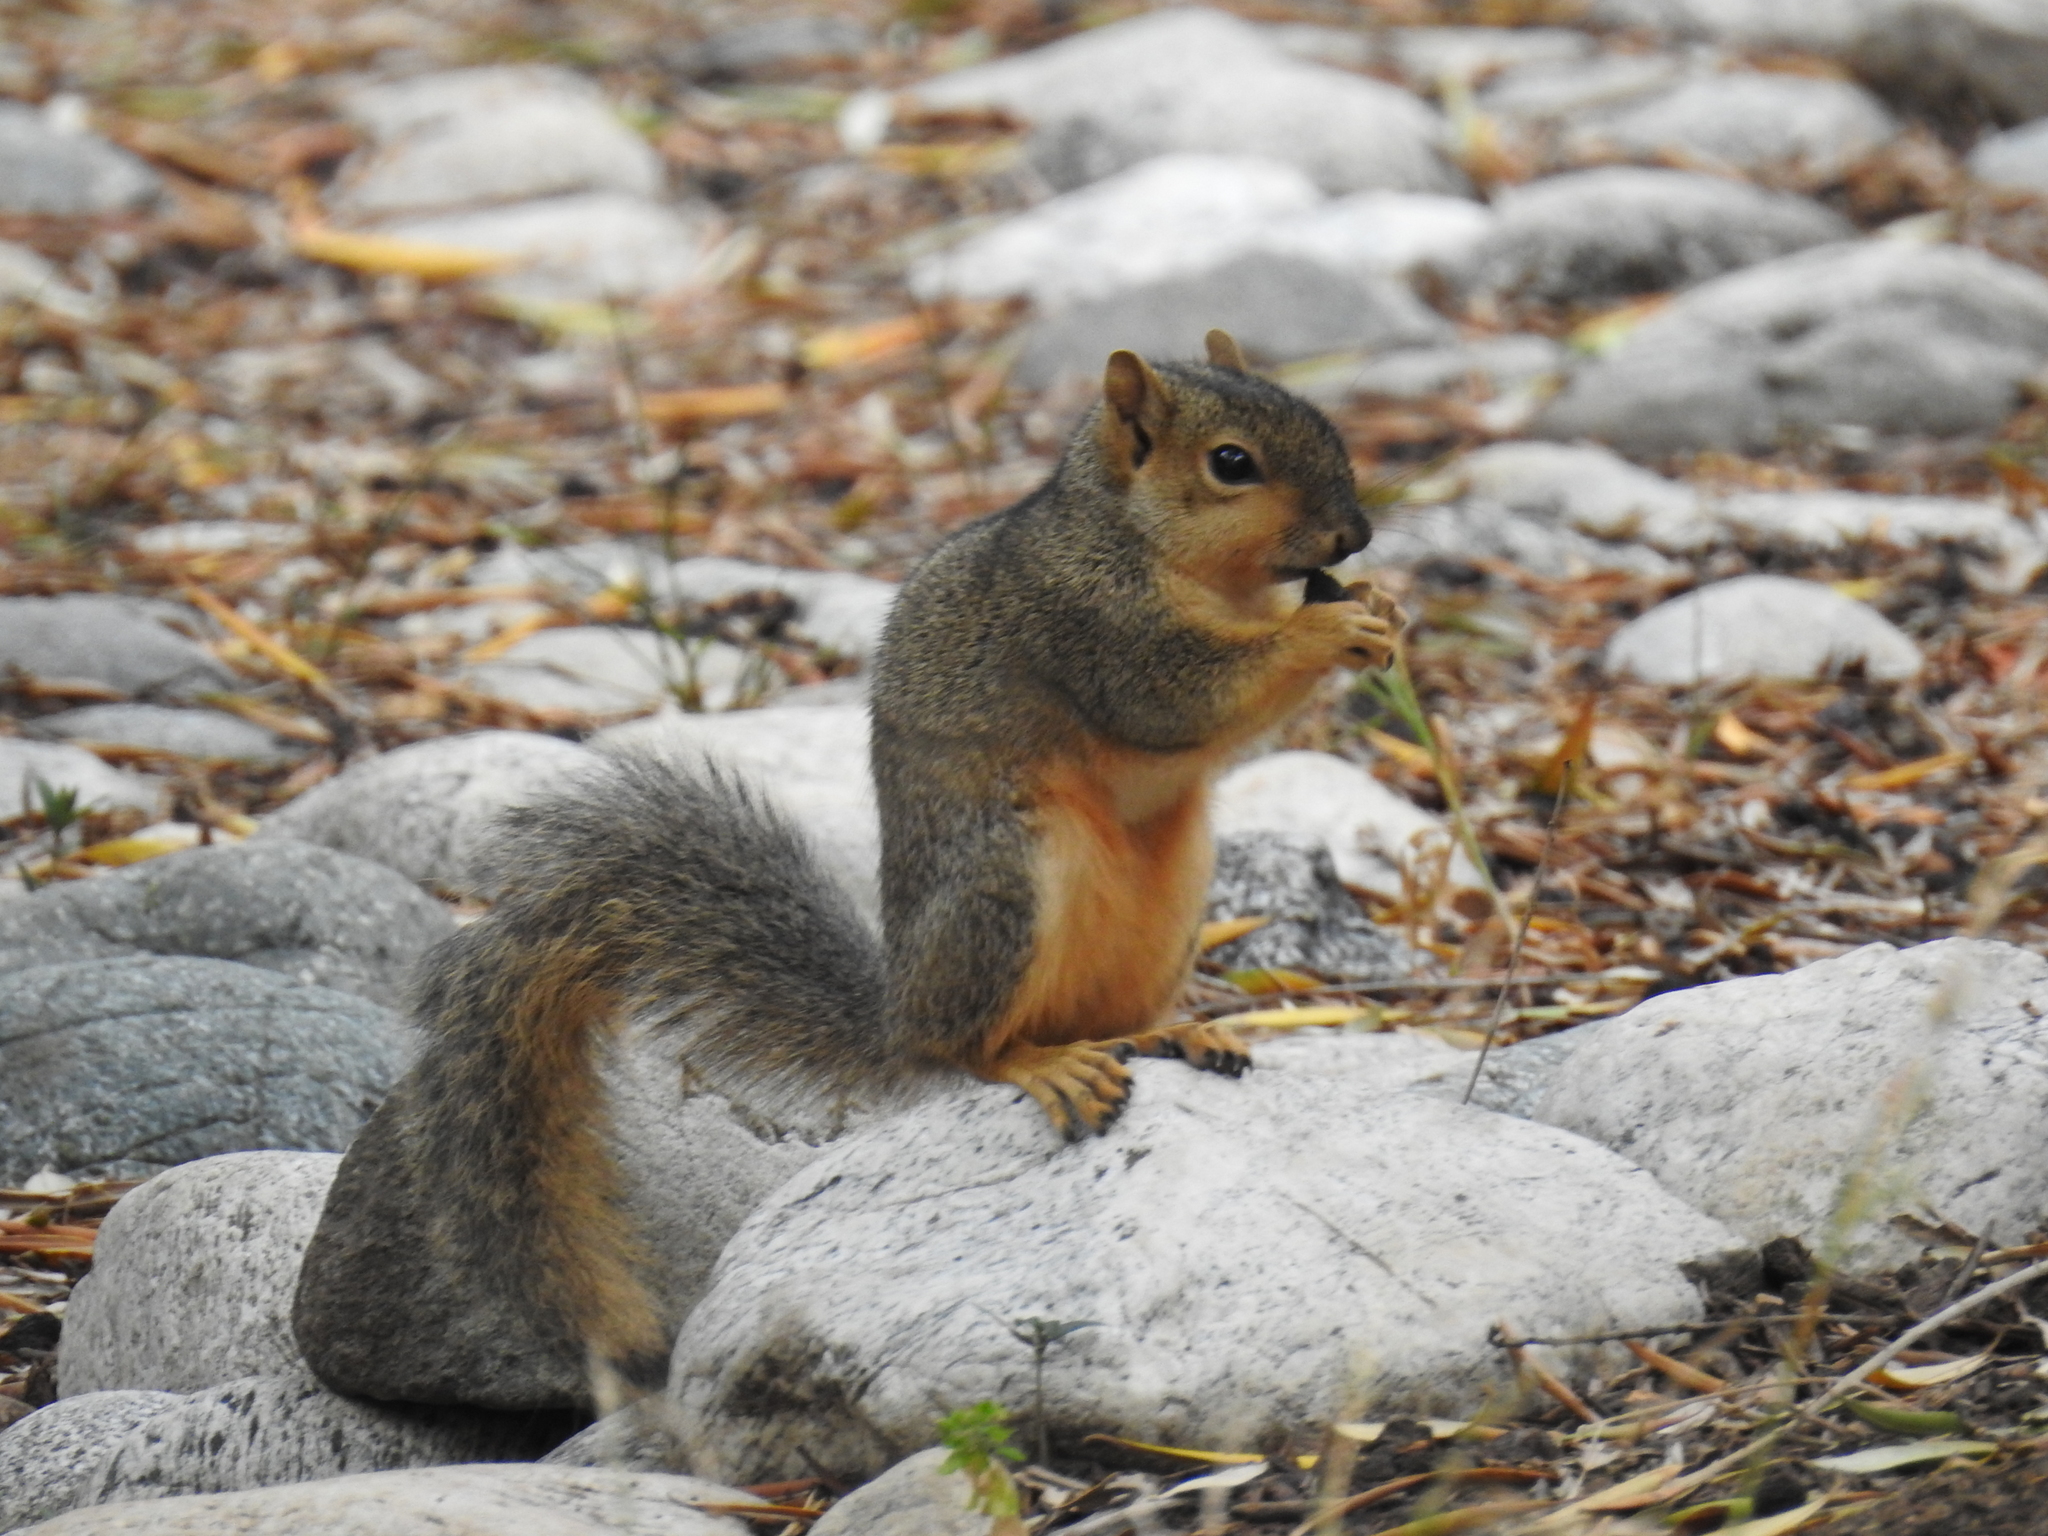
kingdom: Animalia
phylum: Chordata
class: Mammalia
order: Rodentia
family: Sciuridae
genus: Sciurus
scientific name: Sciurus niger
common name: Fox squirrel
